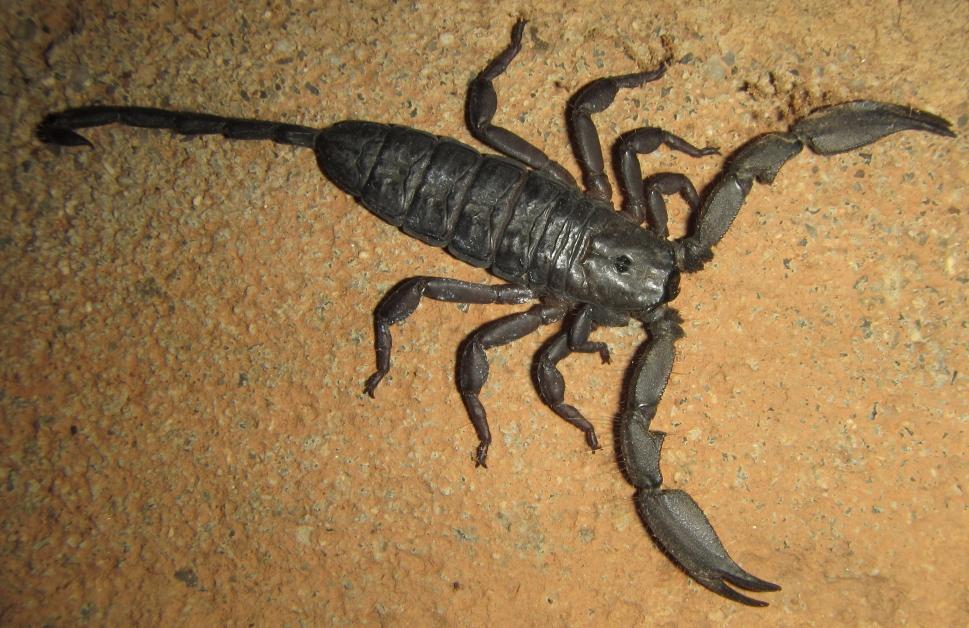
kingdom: Animalia
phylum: Arthropoda
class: Arachnida
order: Scorpiones
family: Hormuridae
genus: Hadogenes
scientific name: Hadogenes troglodytes
